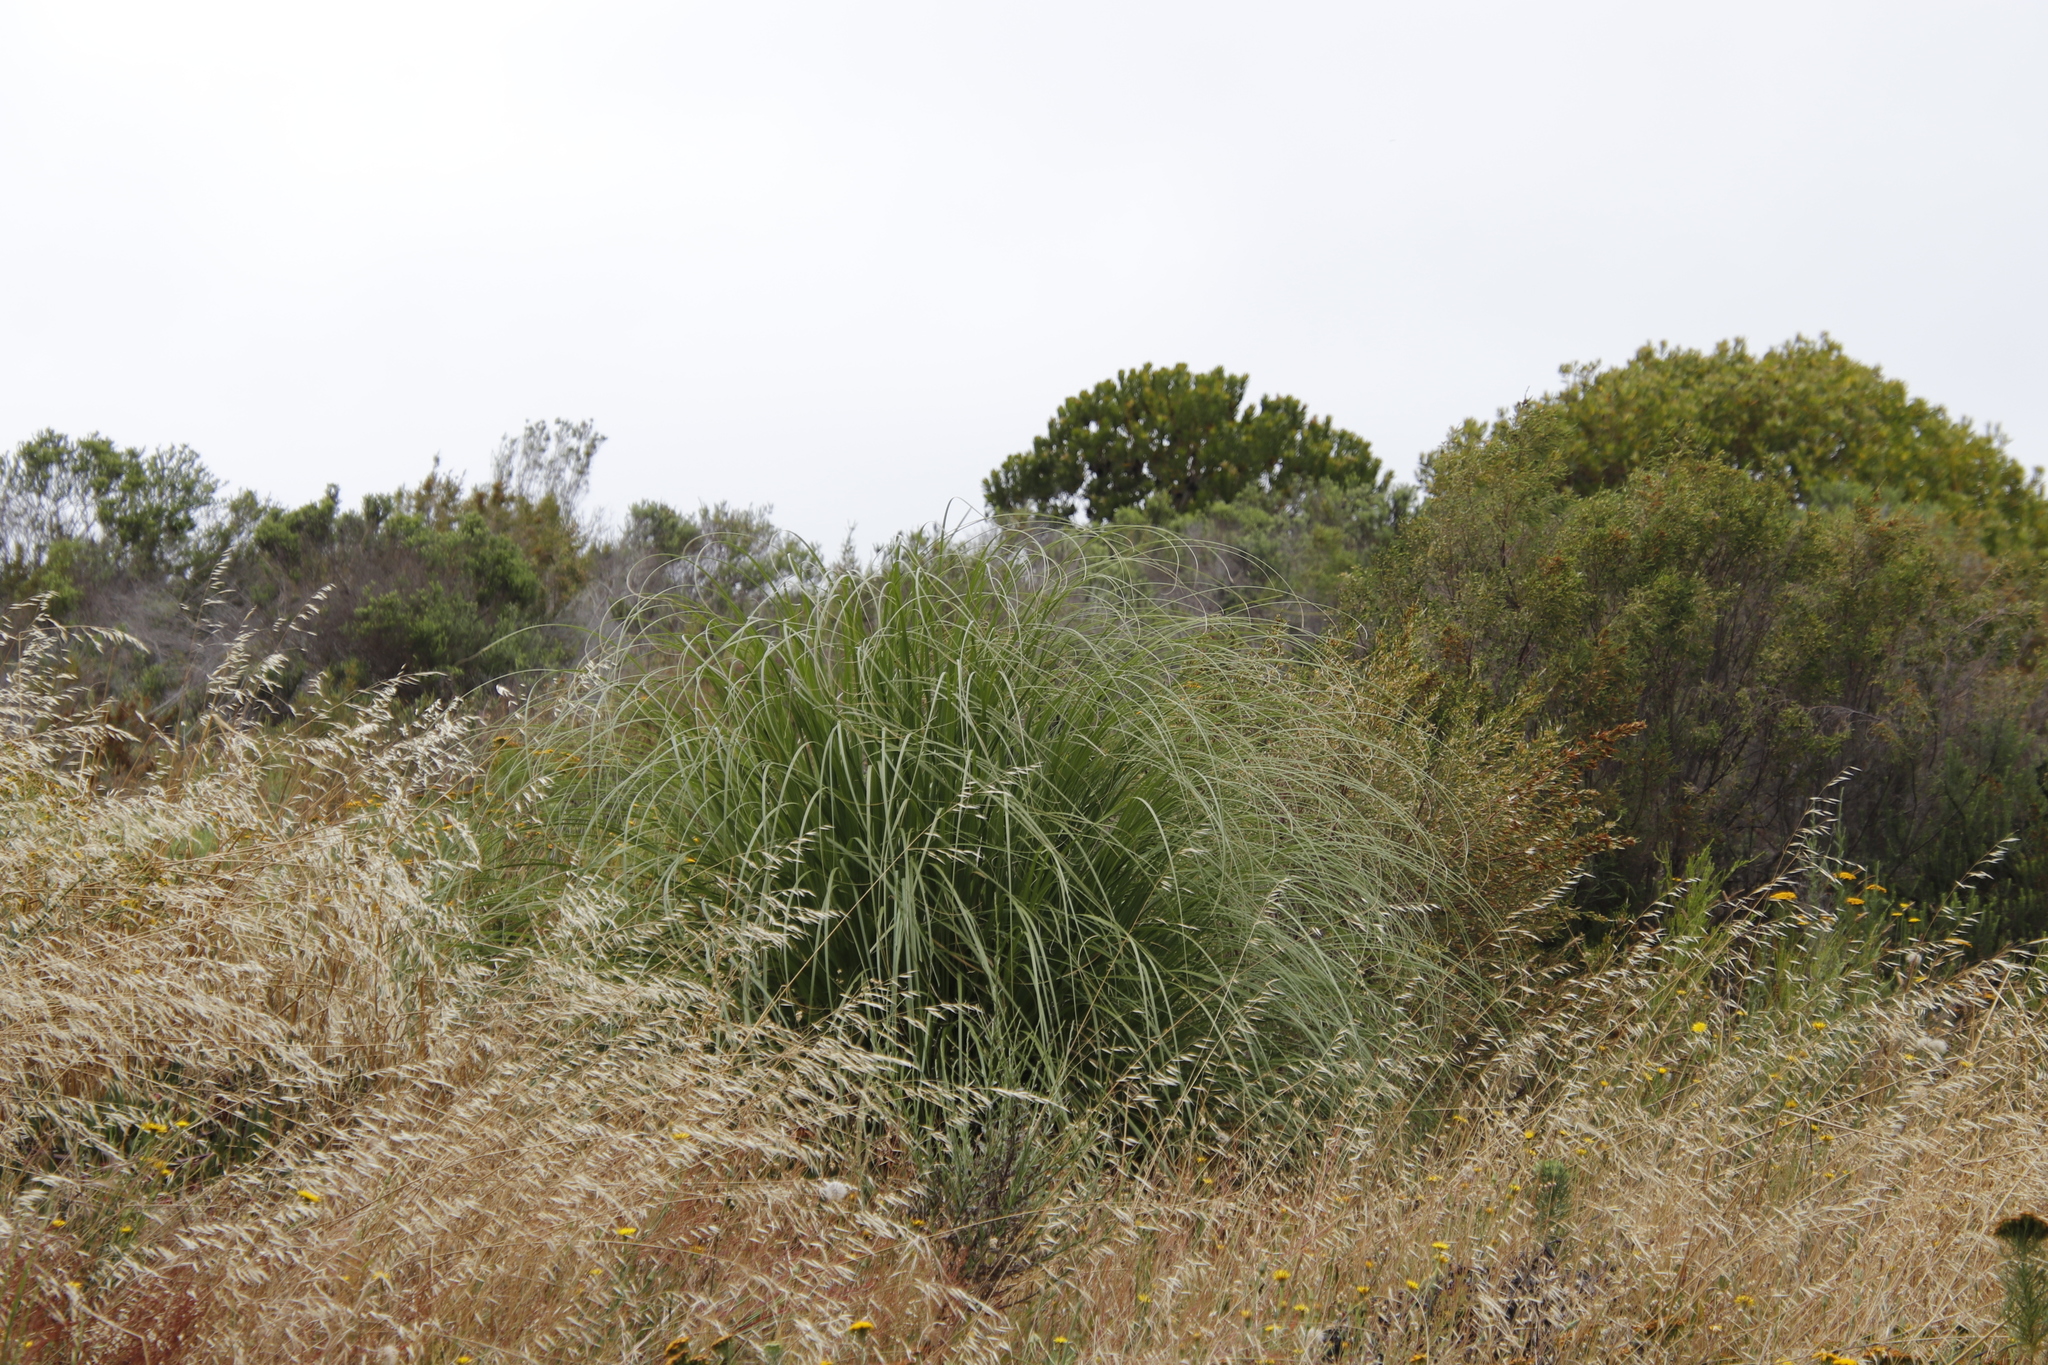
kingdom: Plantae
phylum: Tracheophyta
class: Liliopsida
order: Poales
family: Poaceae
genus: Cortaderia
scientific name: Cortaderia selloana
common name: Uruguayan pampas grass
